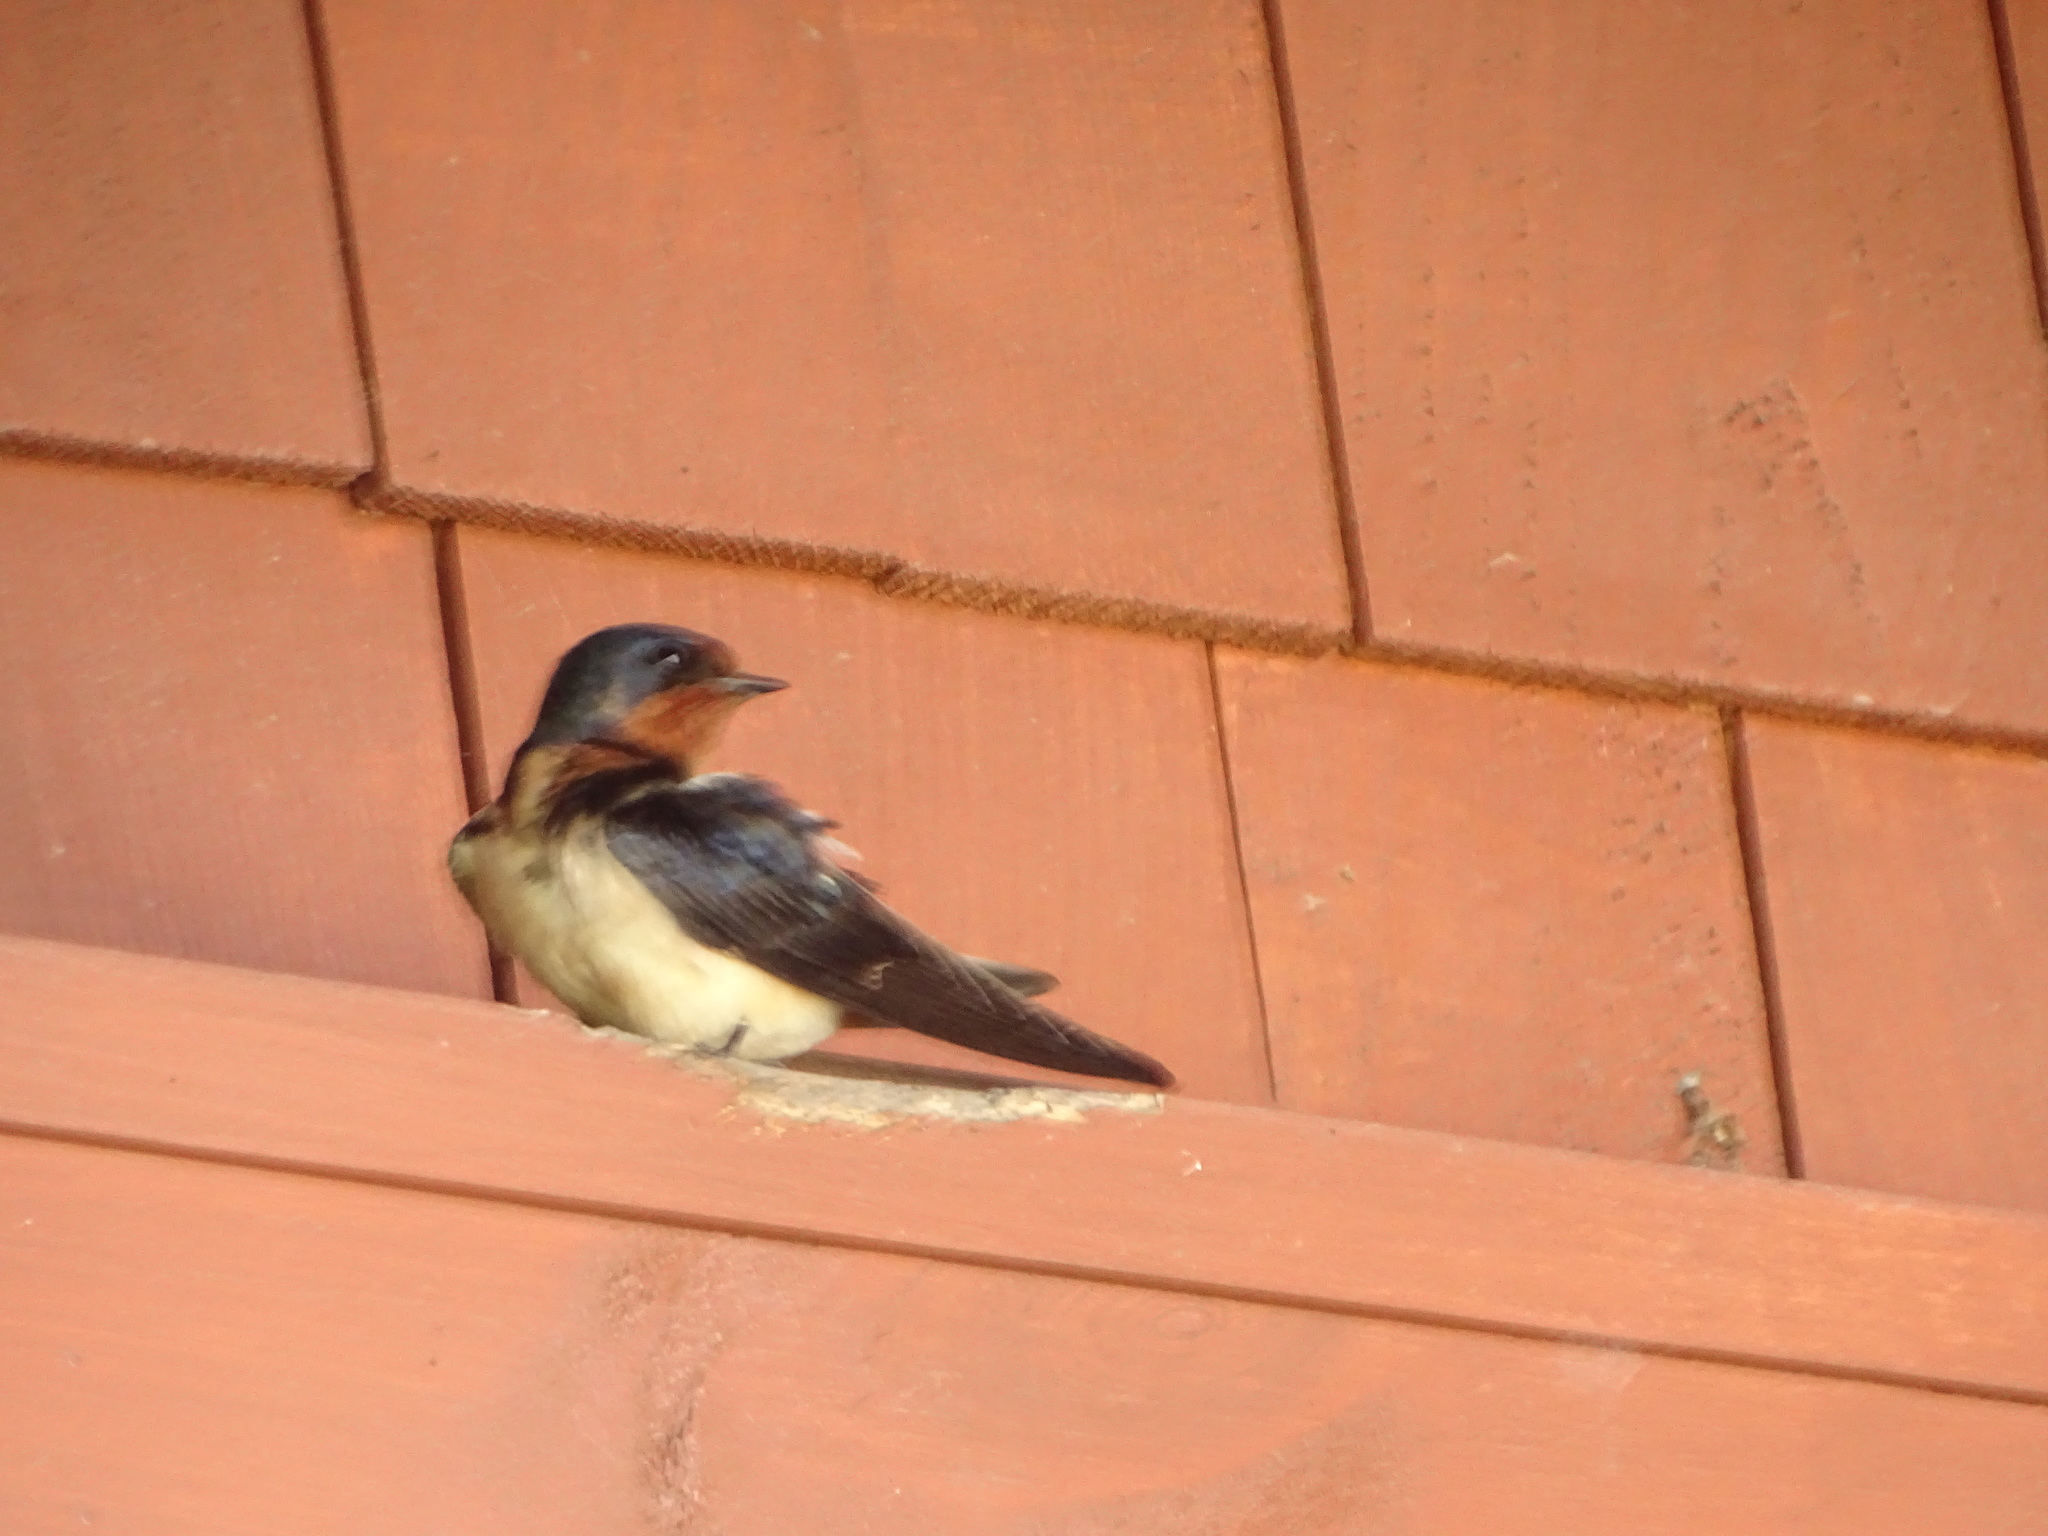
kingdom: Animalia
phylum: Chordata
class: Aves
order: Passeriformes
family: Hirundinidae
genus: Hirundo
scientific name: Hirundo rustica
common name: Barn swallow
